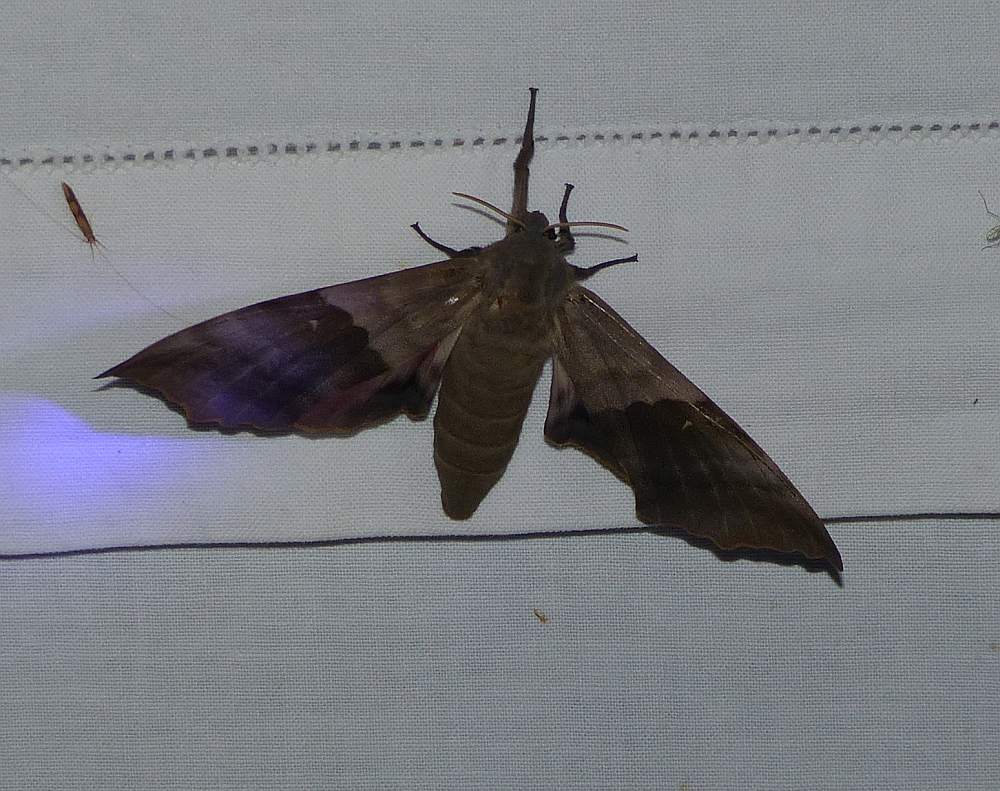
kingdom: Animalia
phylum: Arthropoda
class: Insecta
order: Lepidoptera
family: Sphingidae
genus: Pachysphinx
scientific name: Pachysphinx modesta
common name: Big poplar sphinx
